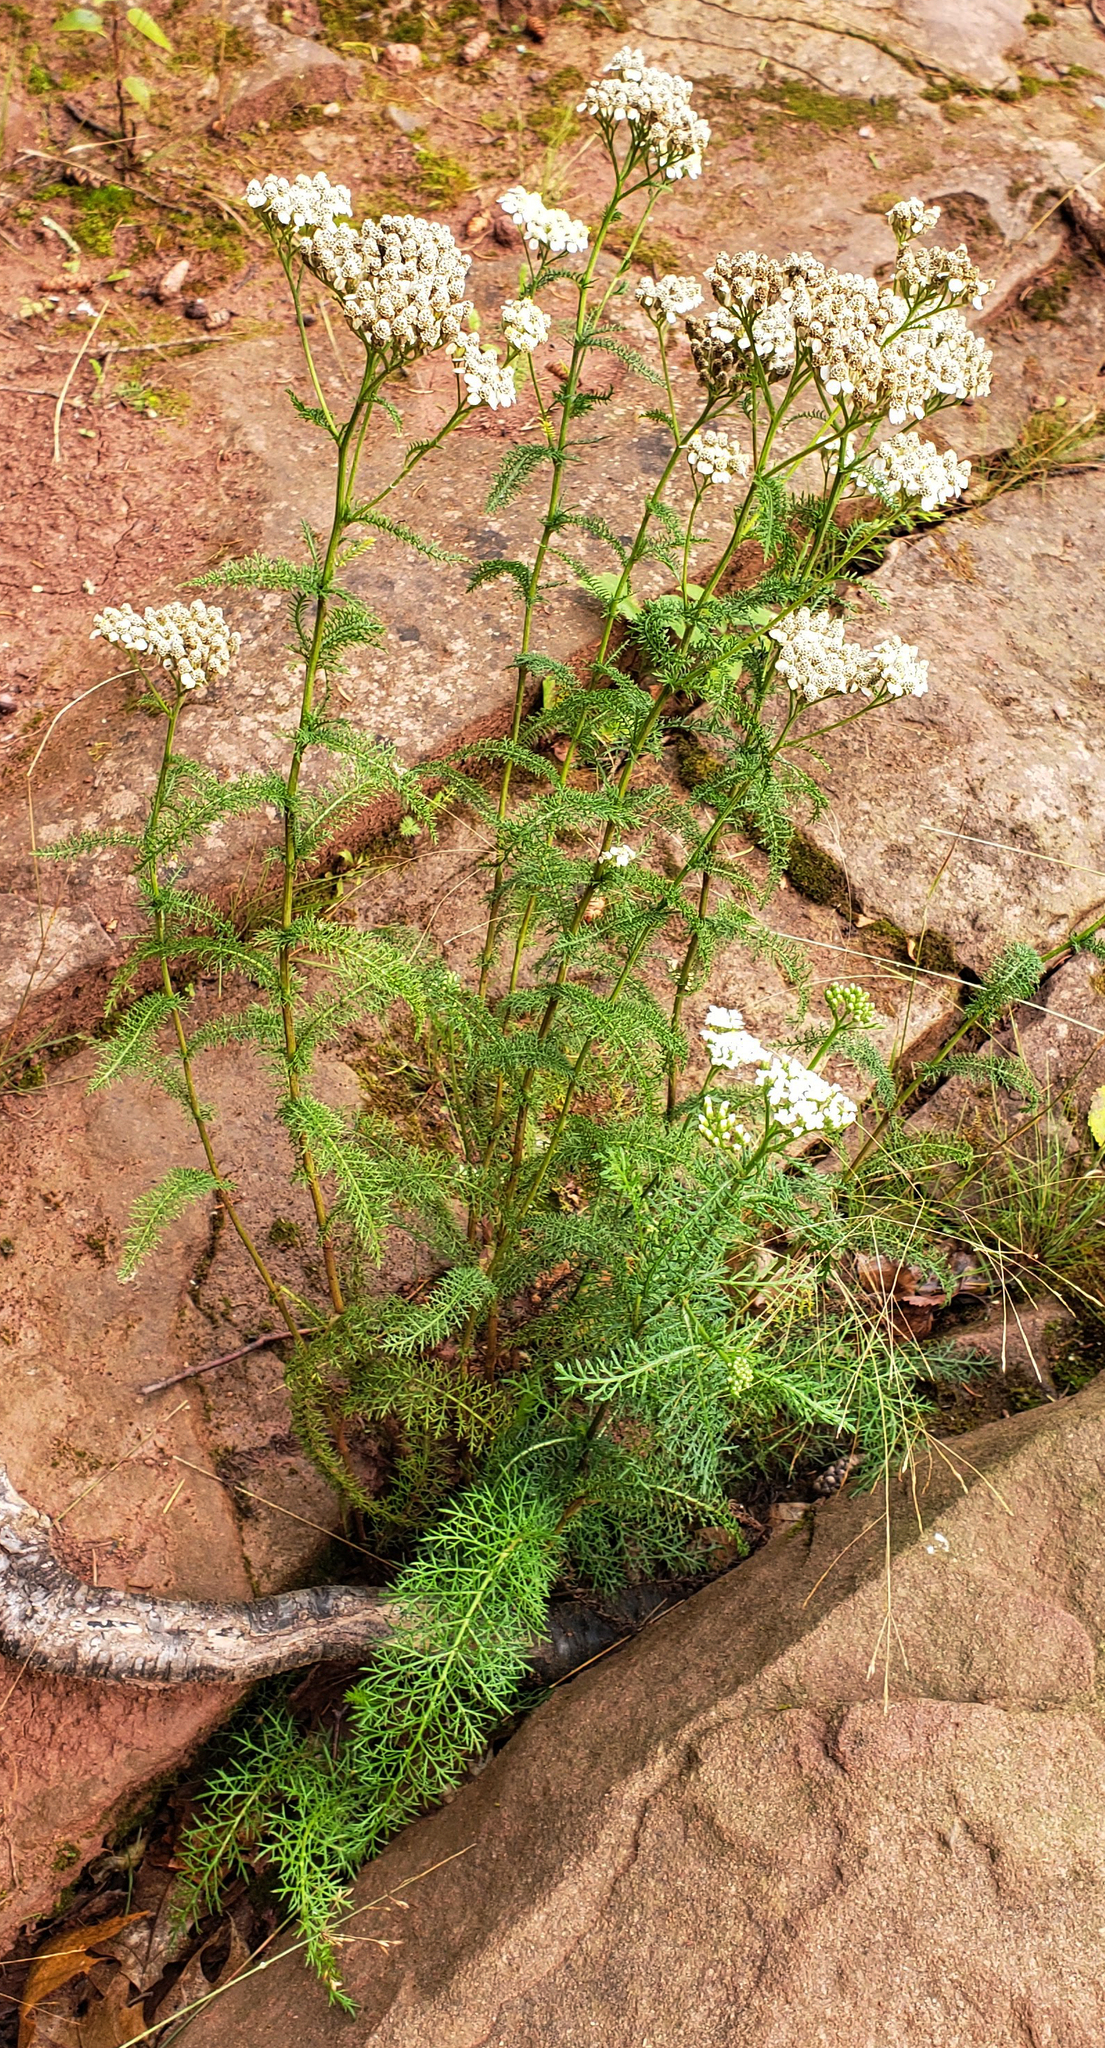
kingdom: Plantae
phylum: Tracheophyta
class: Magnoliopsida
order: Asterales
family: Asteraceae
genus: Achillea
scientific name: Achillea millefolium
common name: Yarrow
